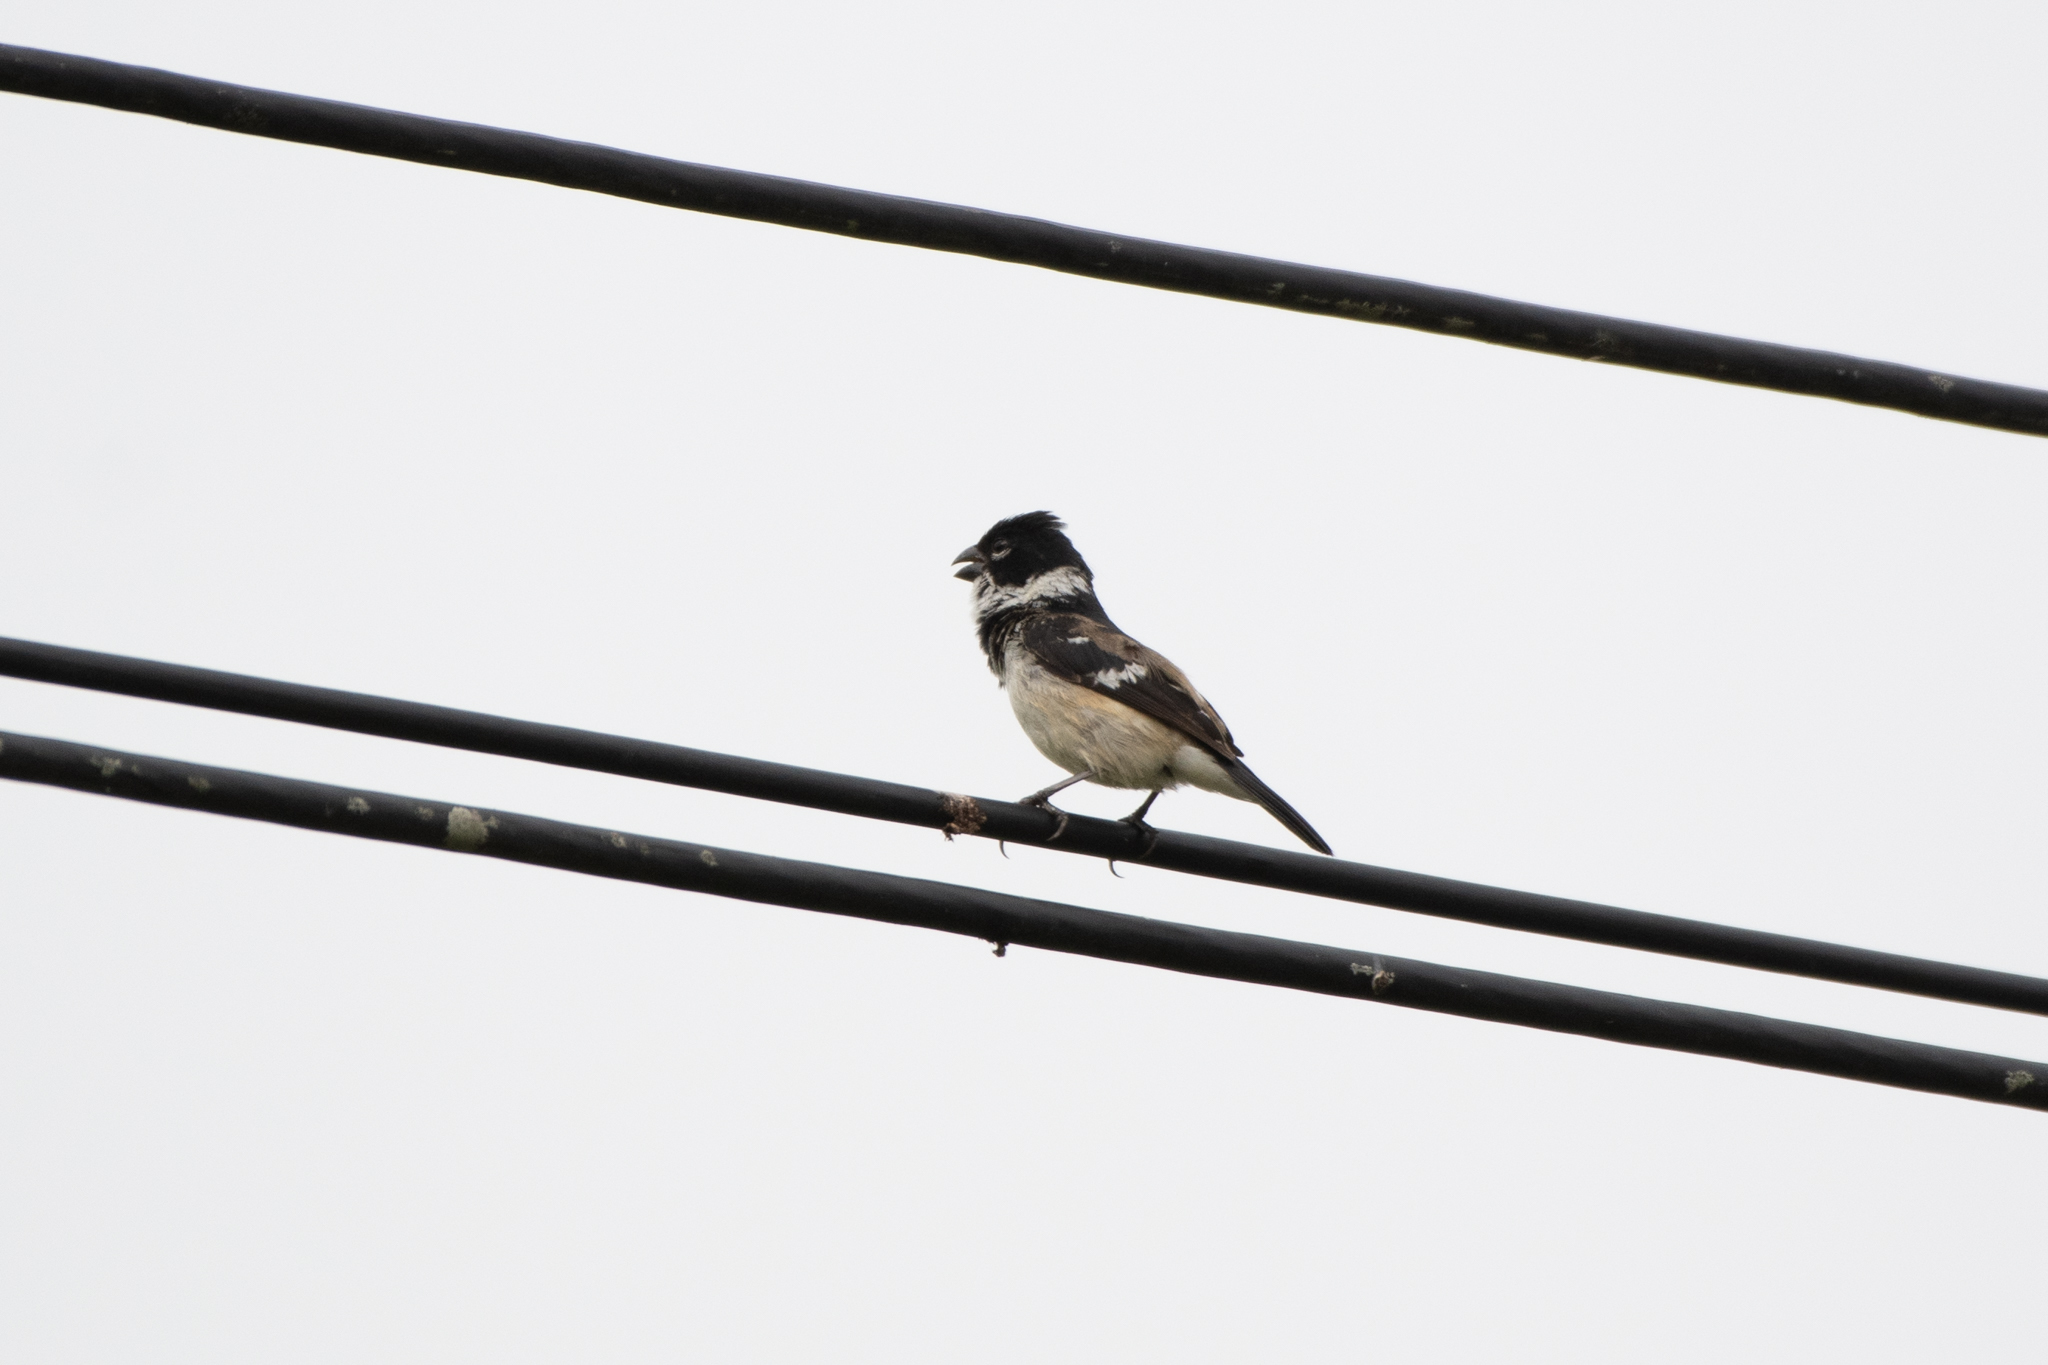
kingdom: Animalia
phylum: Chordata
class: Aves
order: Passeriformes
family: Thraupidae
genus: Sporophila
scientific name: Sporophila morelleti
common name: Morelet's seedeater
